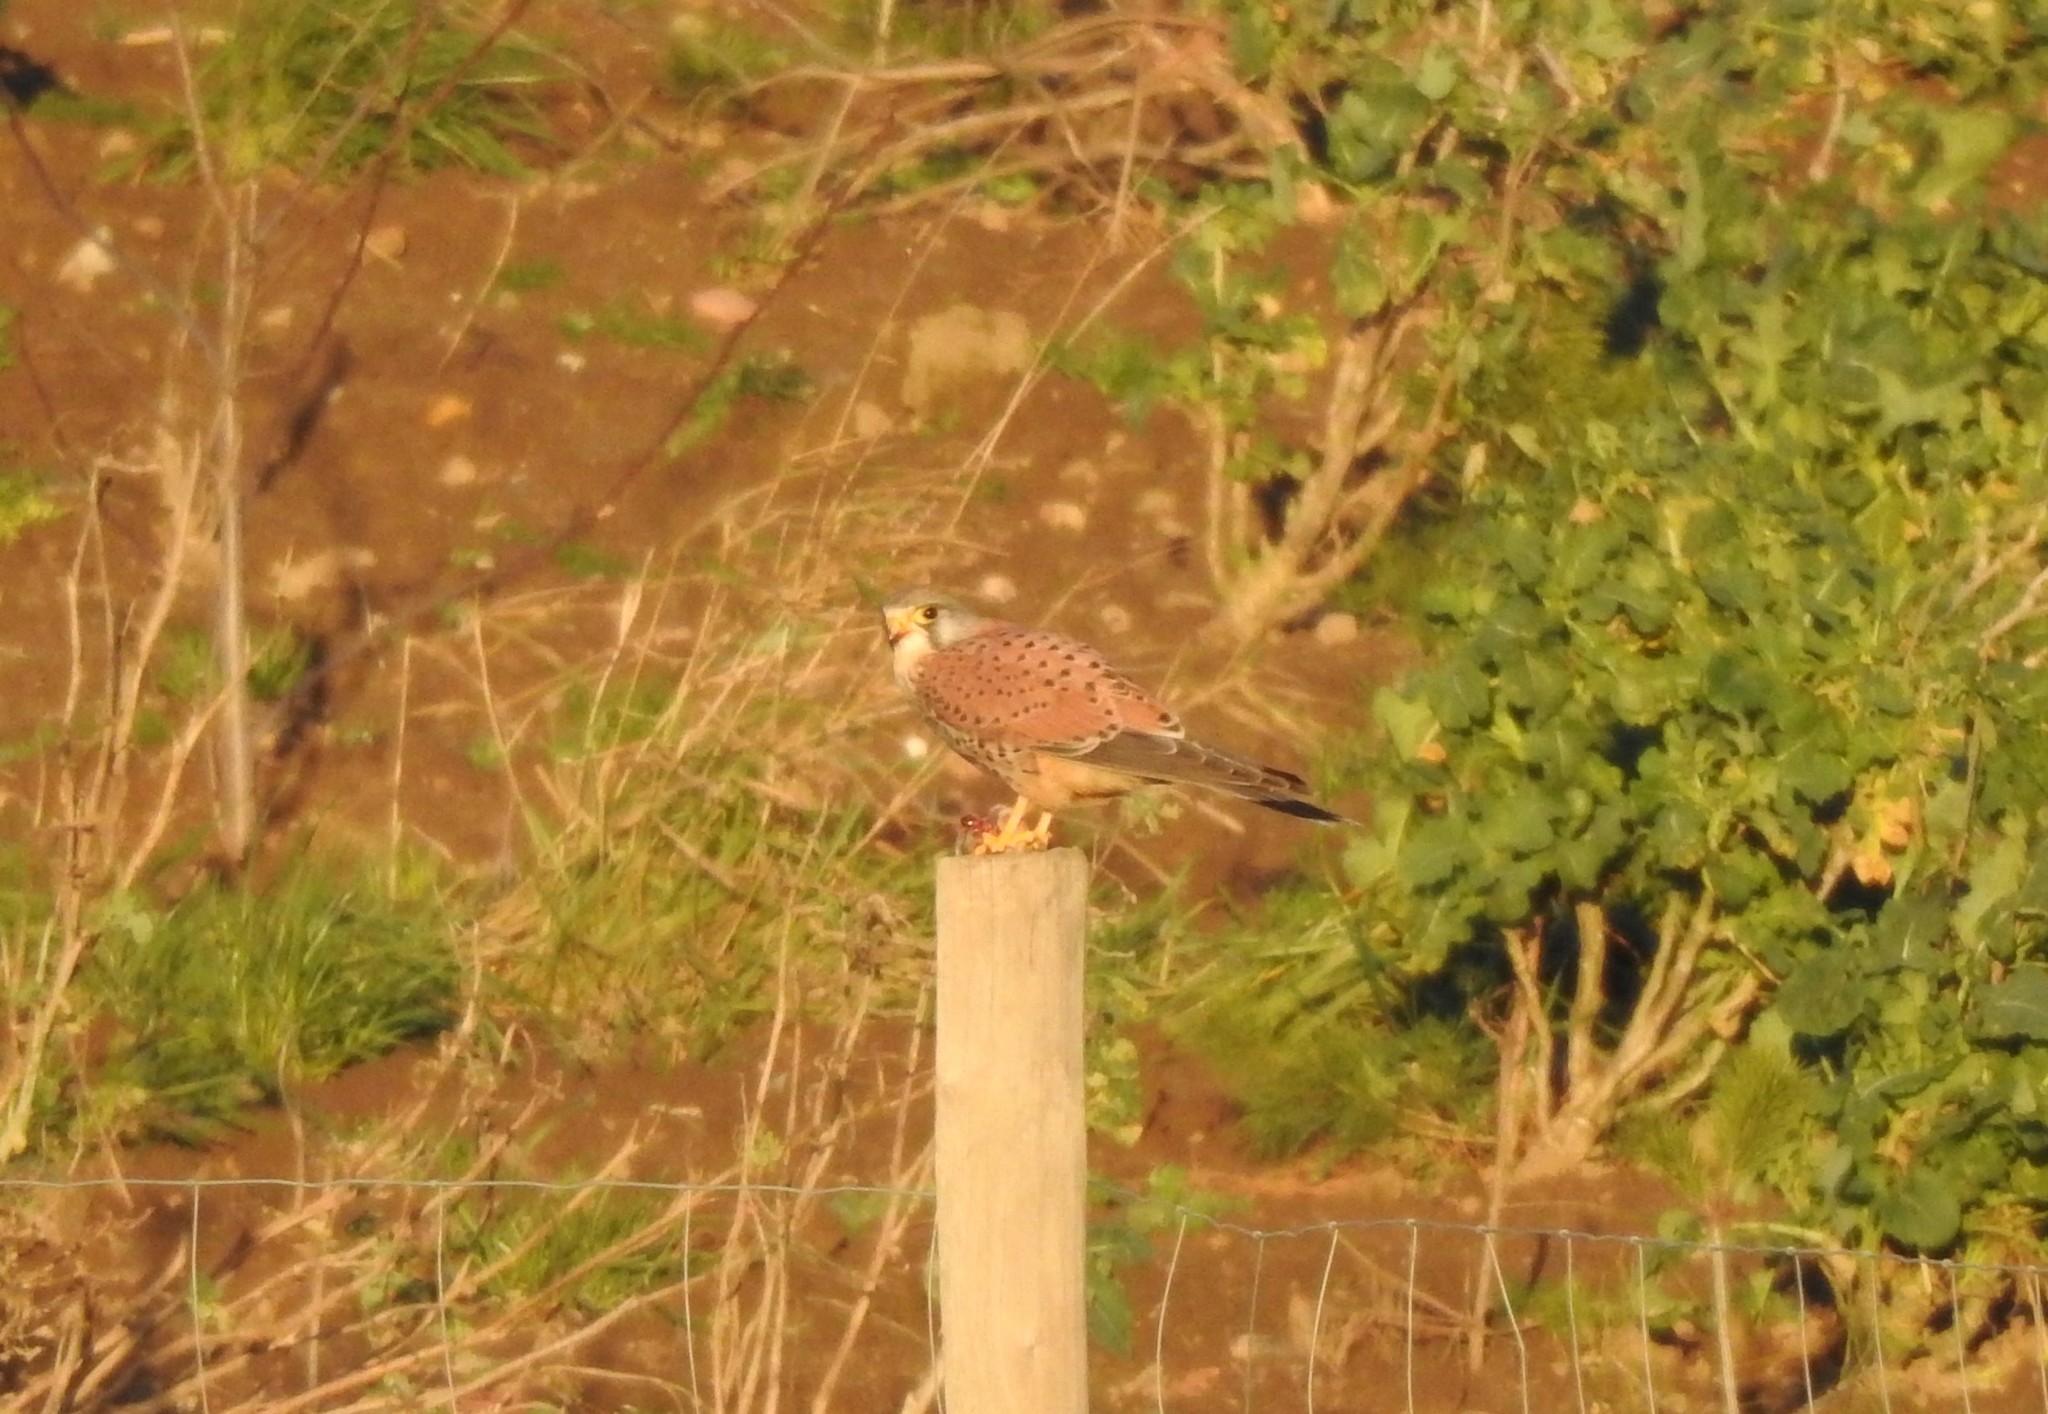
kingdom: Animalia
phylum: Chordata
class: Aves
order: Falconiformes
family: Falconidae
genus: Falco
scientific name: Falco tinnunculus
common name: Common kestrel
